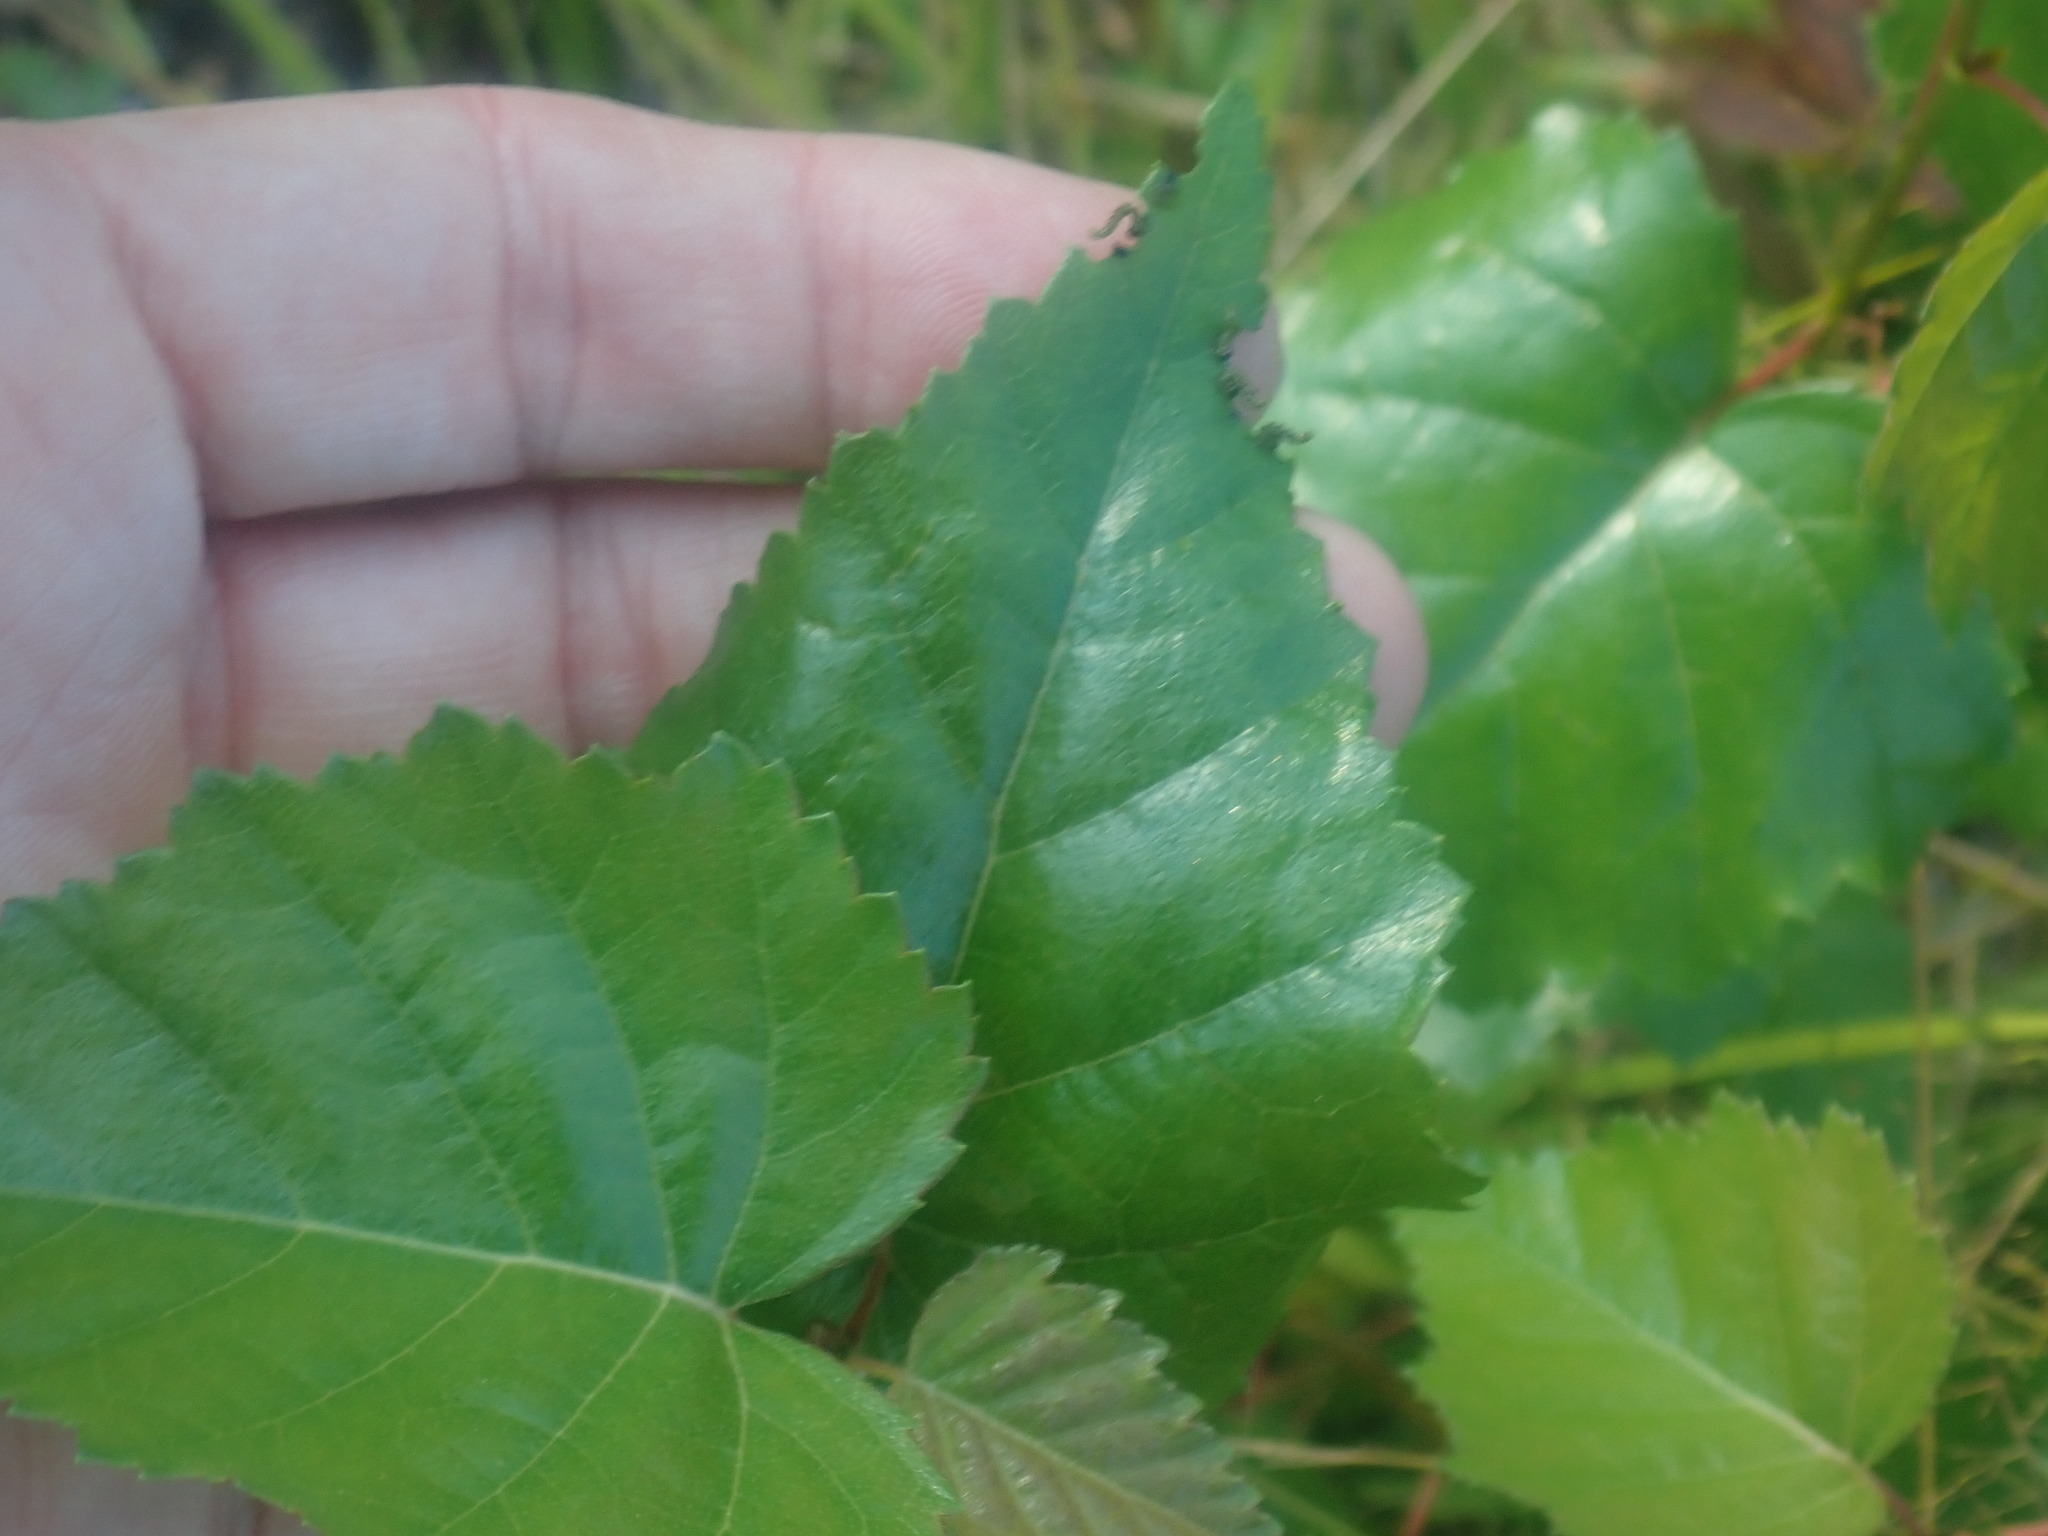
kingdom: Plantae
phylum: Tracheophyta
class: Magnoliopsida
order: Fagales
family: Betulaceae
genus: Betula
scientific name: Betula populifolia
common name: Fire birch
